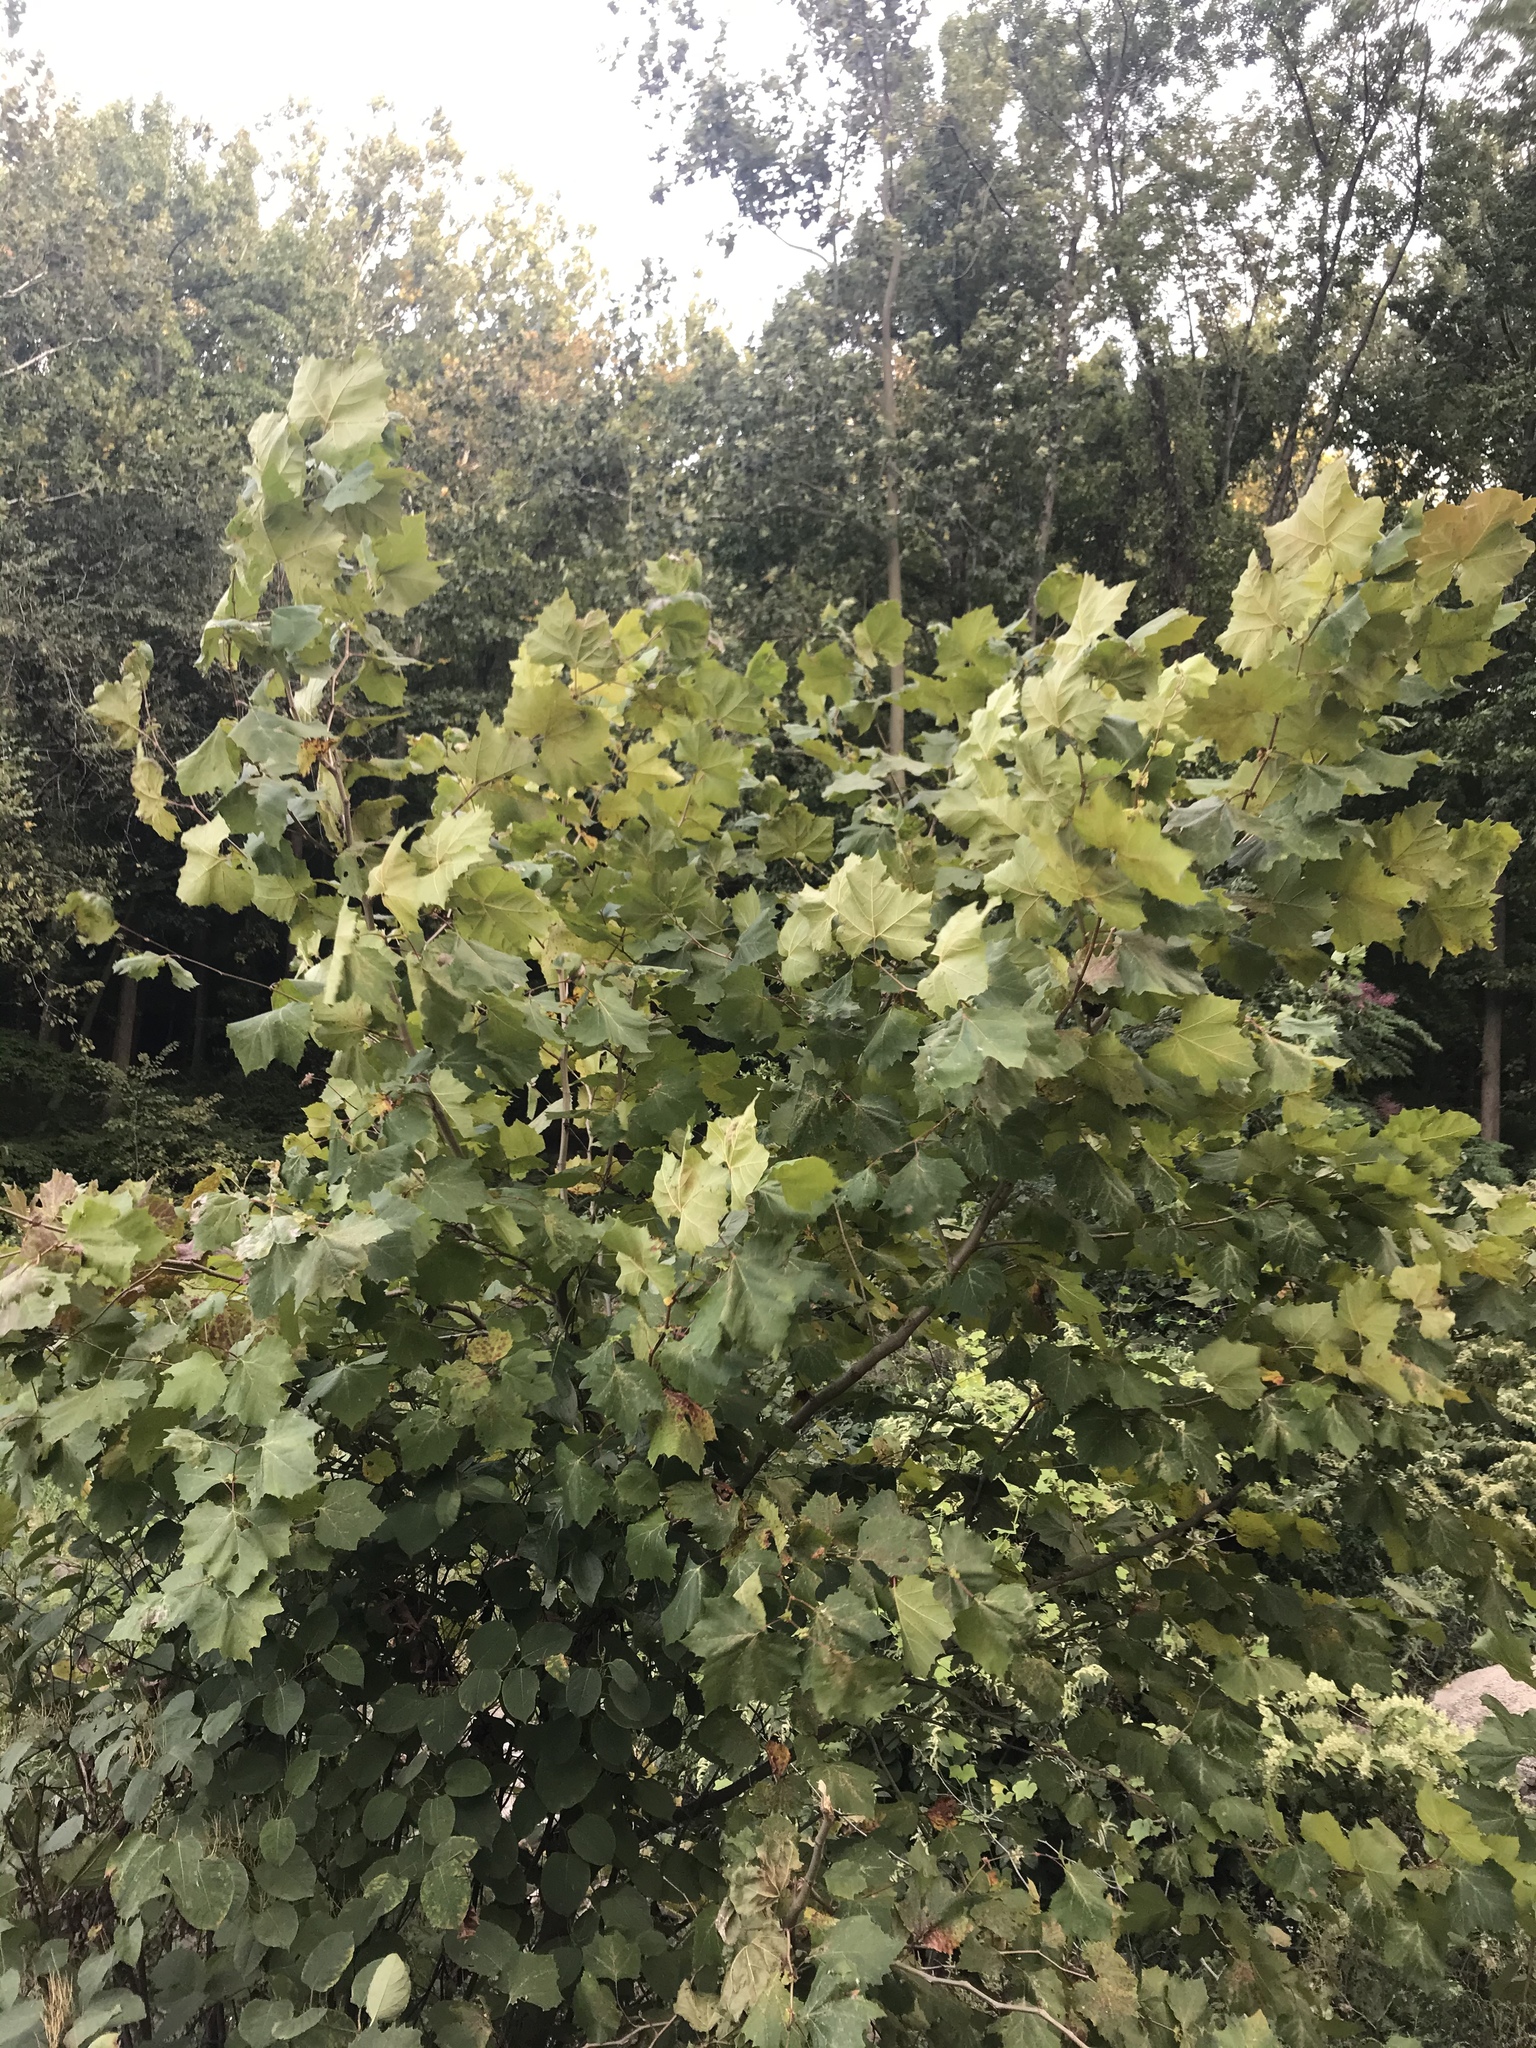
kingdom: Plantae
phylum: Tracheophyta
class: Magnoliopsida
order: Proteales
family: Platanaceae
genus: Platanus
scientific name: Platanus occidentalis
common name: American sycamore
